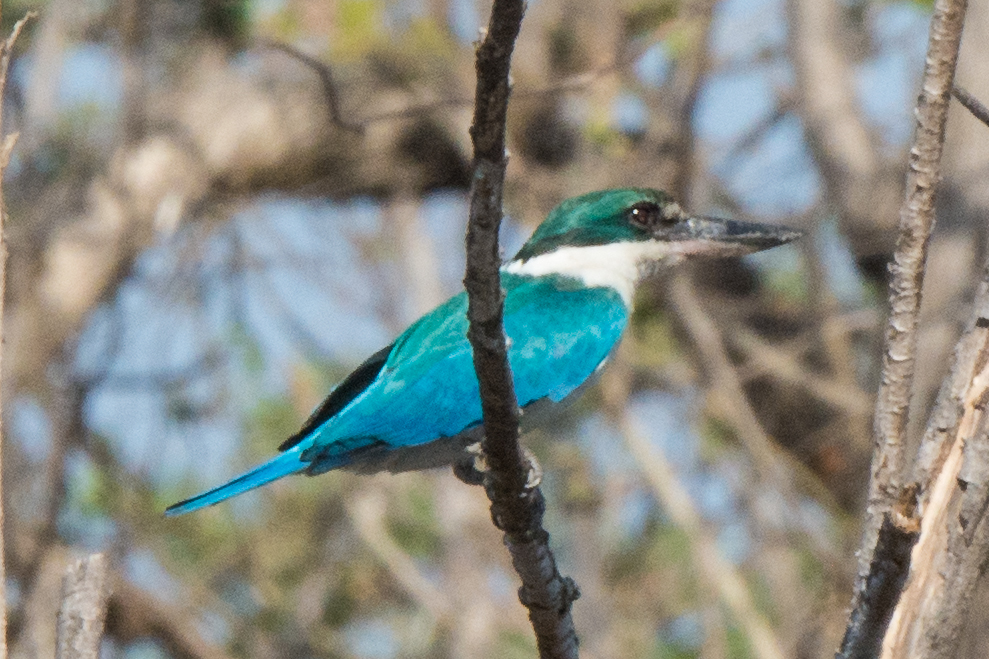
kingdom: Animalia
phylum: Chordata
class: Aves
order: Coraciiformes
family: Alcedinidae
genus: Todiramphus
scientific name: Todiramphus chloris
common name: Collared kingfisher
